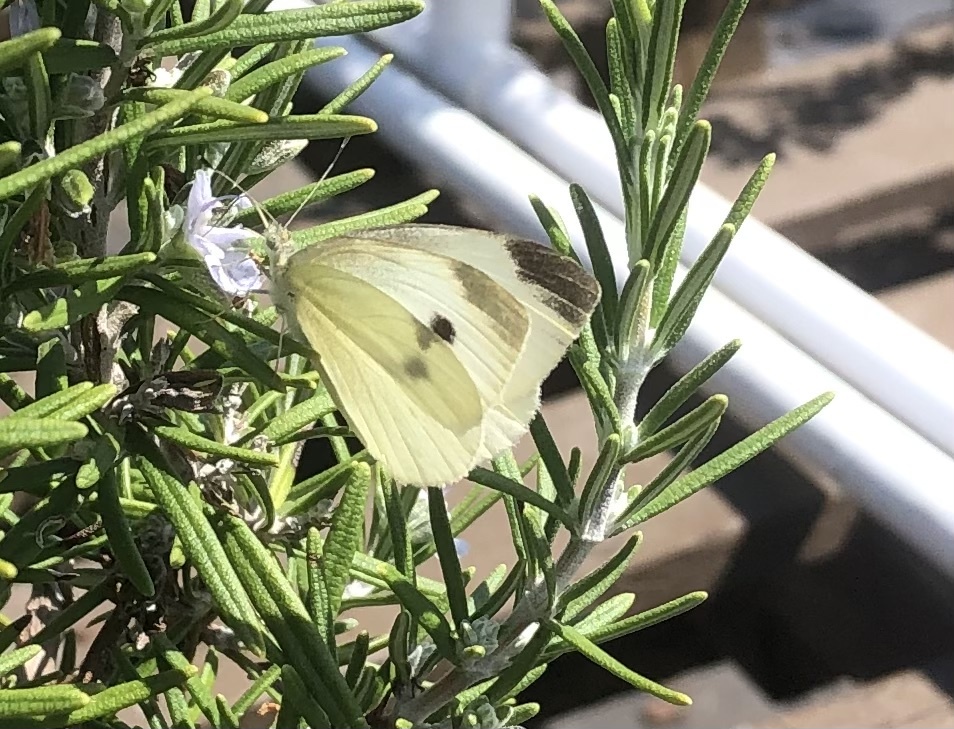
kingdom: Animalia
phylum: Arthropoda
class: Insecta
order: Lepidoptera
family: Pieridae
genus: Pieris
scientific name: Pieris rapae
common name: Small white
